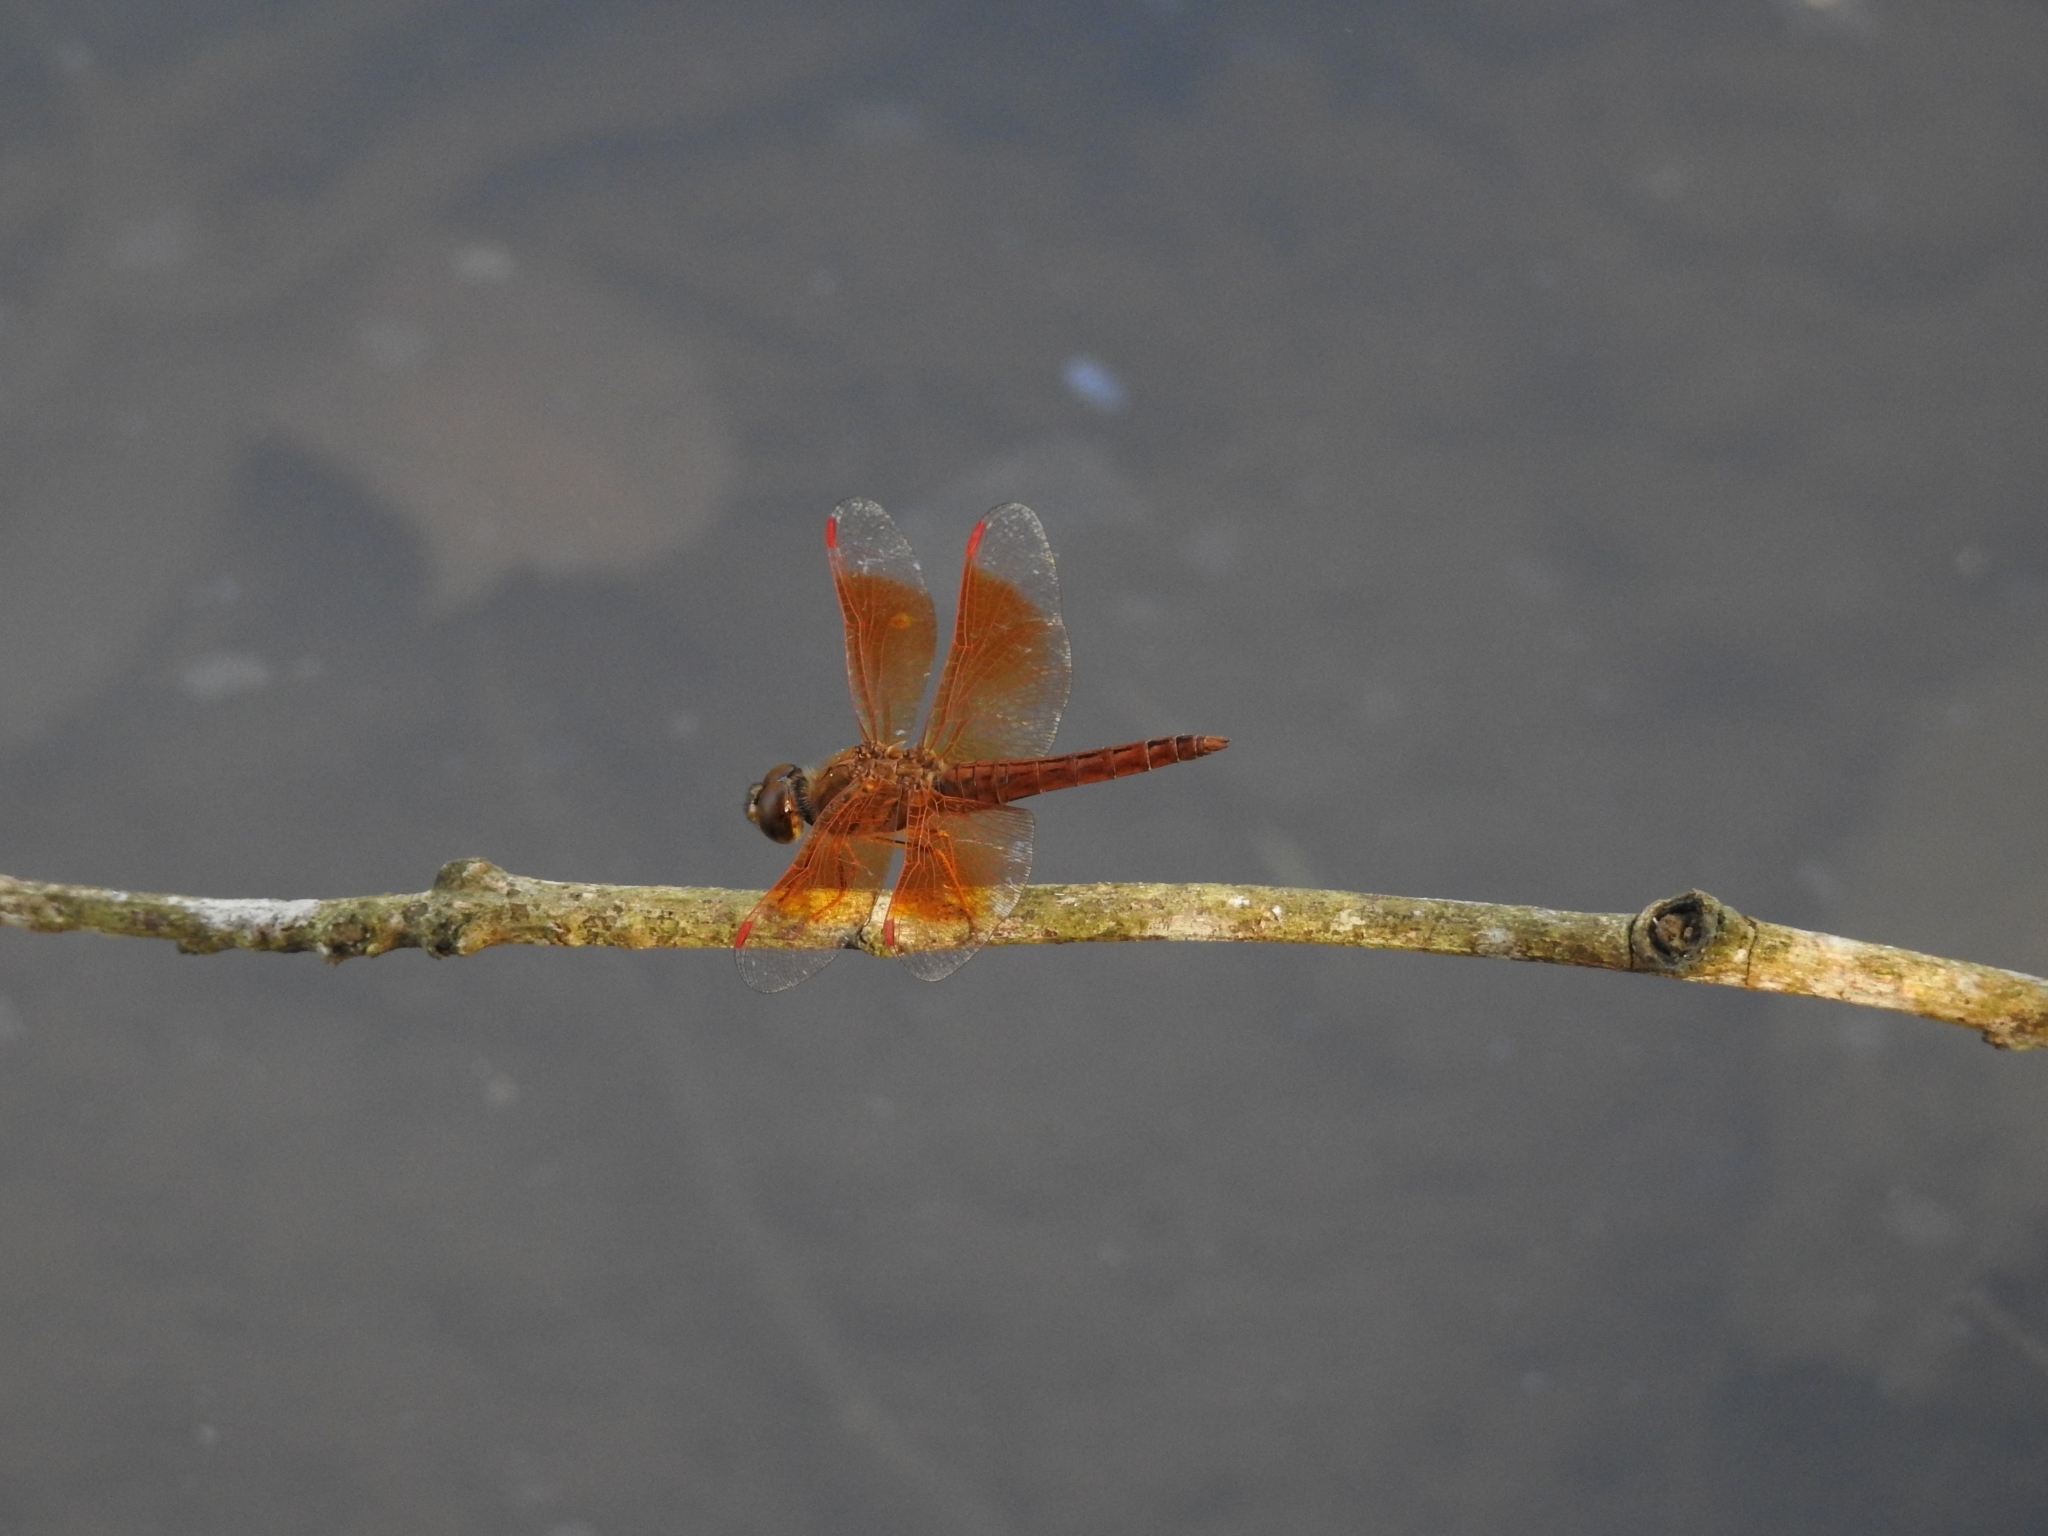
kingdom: Animalia
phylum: Arthropoda
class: Insecta
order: Odonata
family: Libellulidae
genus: Brachythemis
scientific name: Brachythemis contaminata
